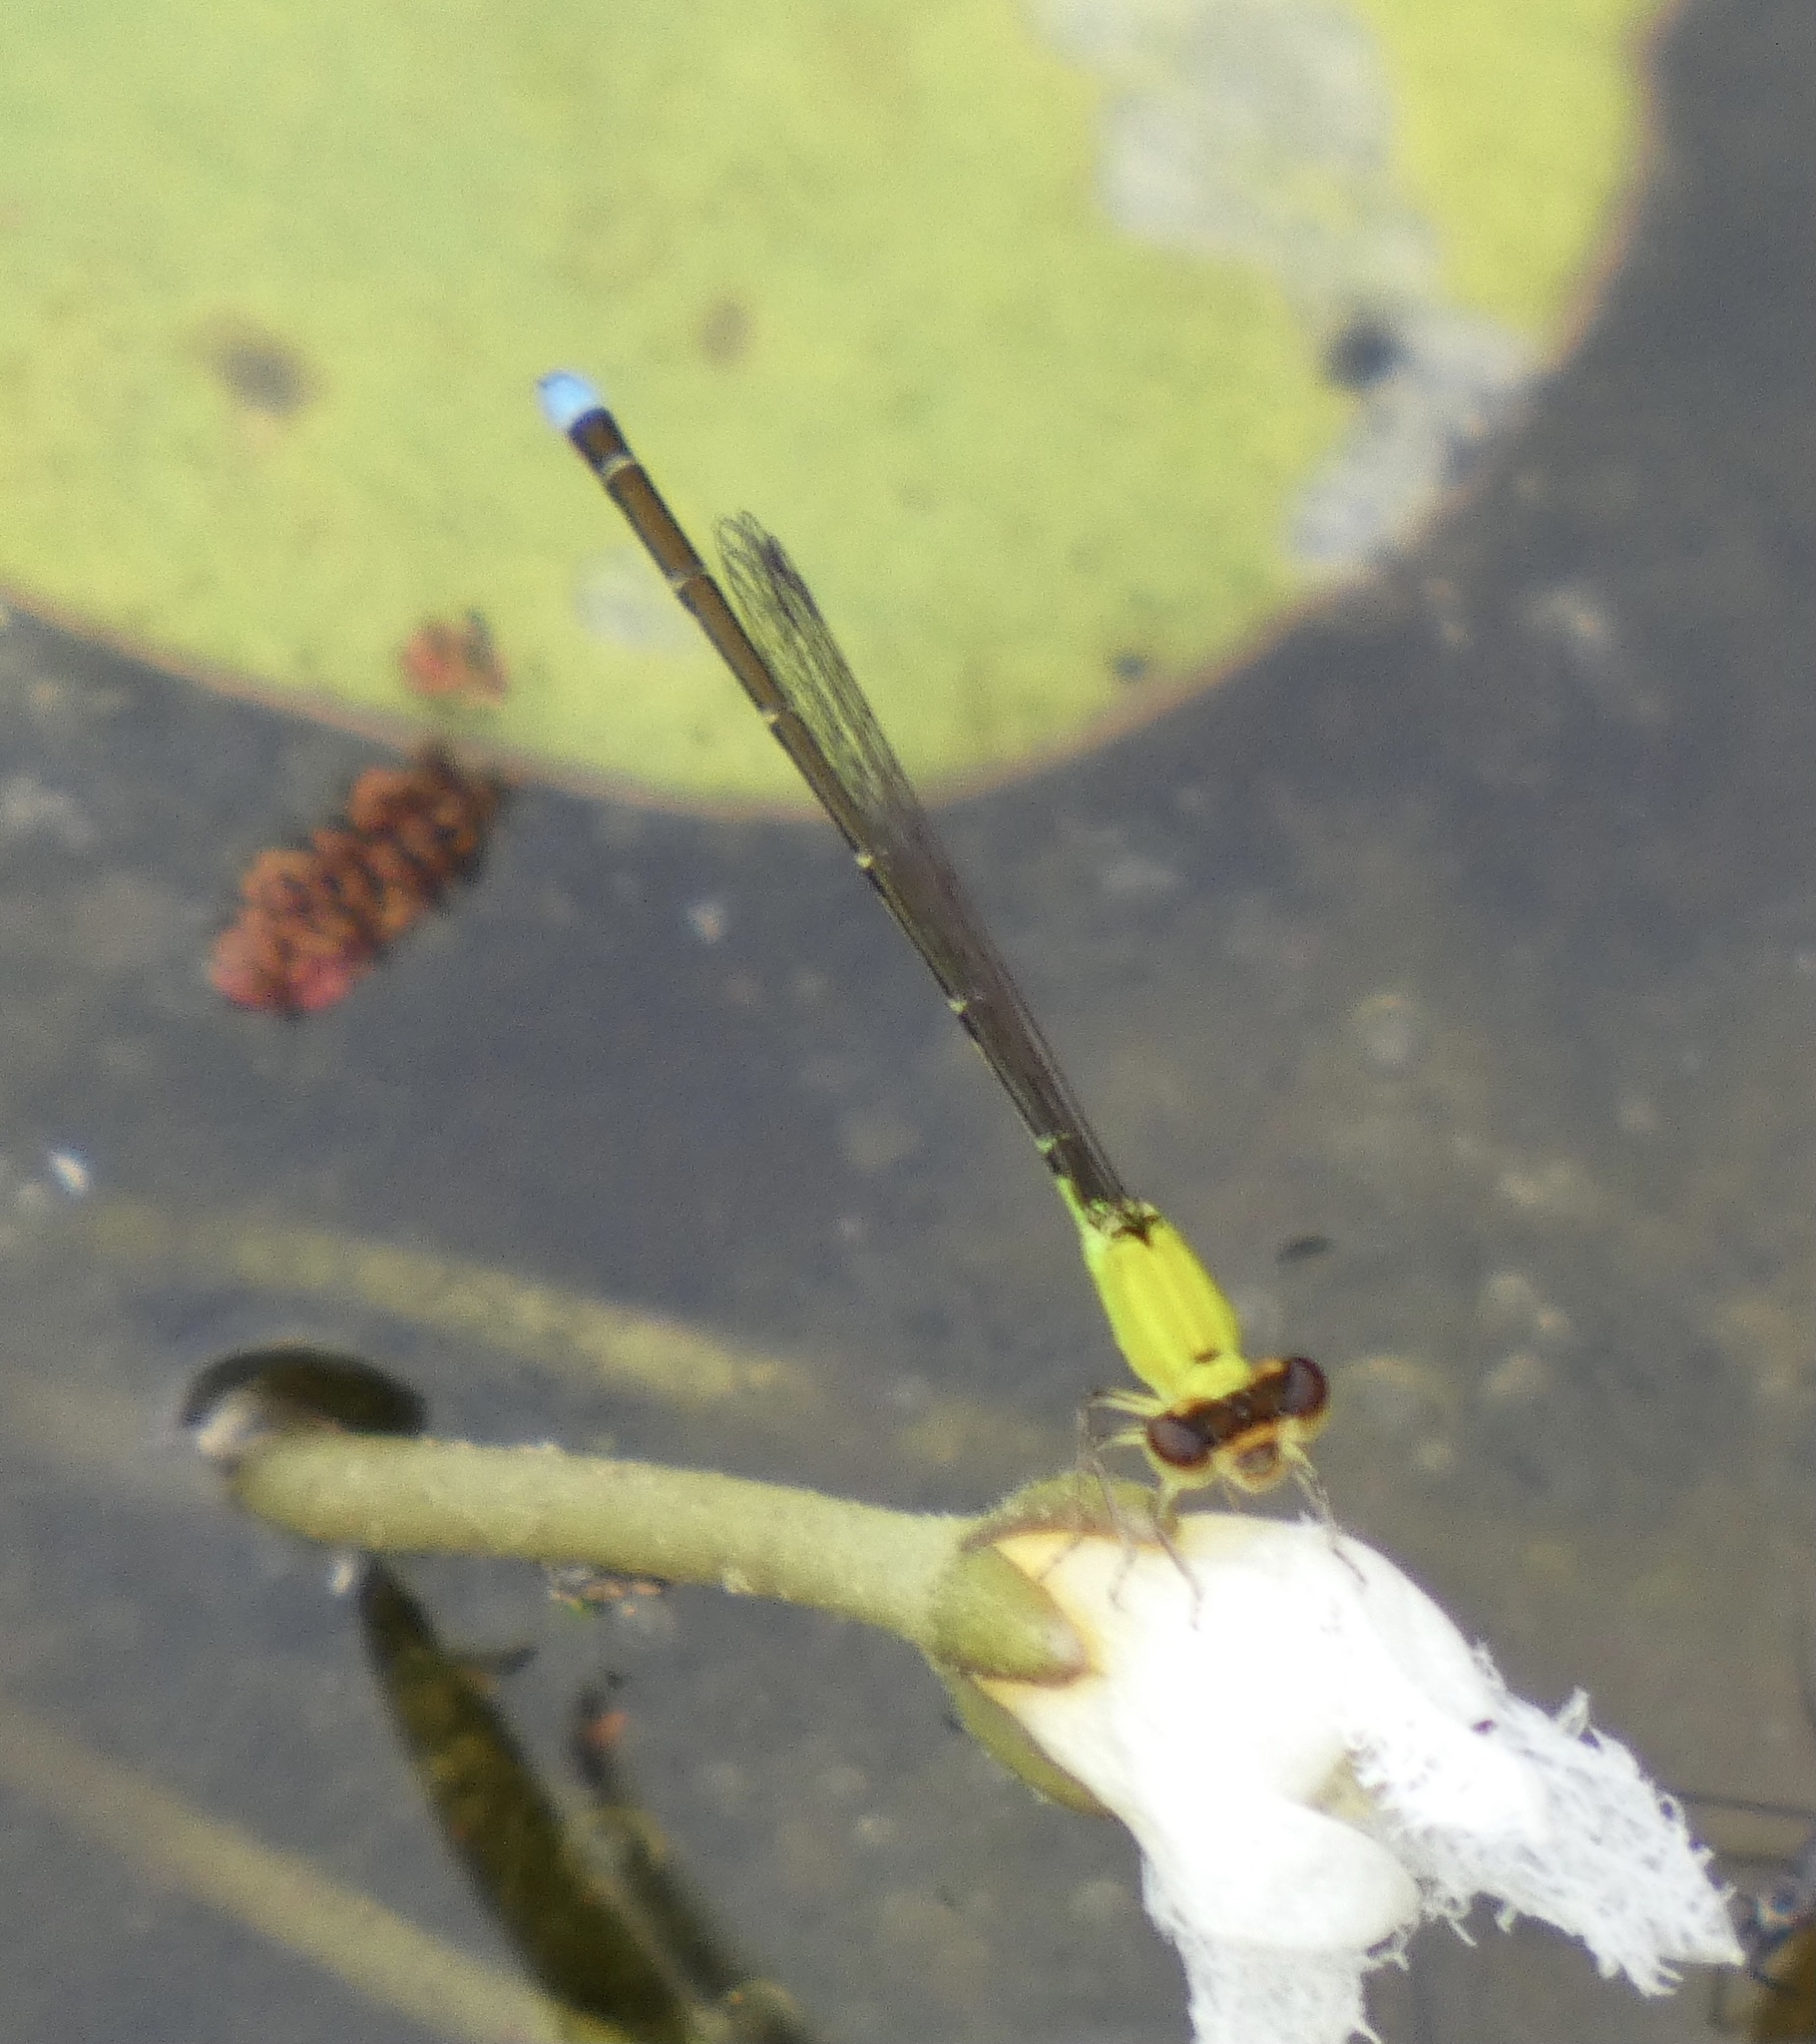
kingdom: Animalia
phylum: Arthropoda
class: Insecta
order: Odonata
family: Coenagrionidae
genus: Ischnura
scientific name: Ischnura capreolus
